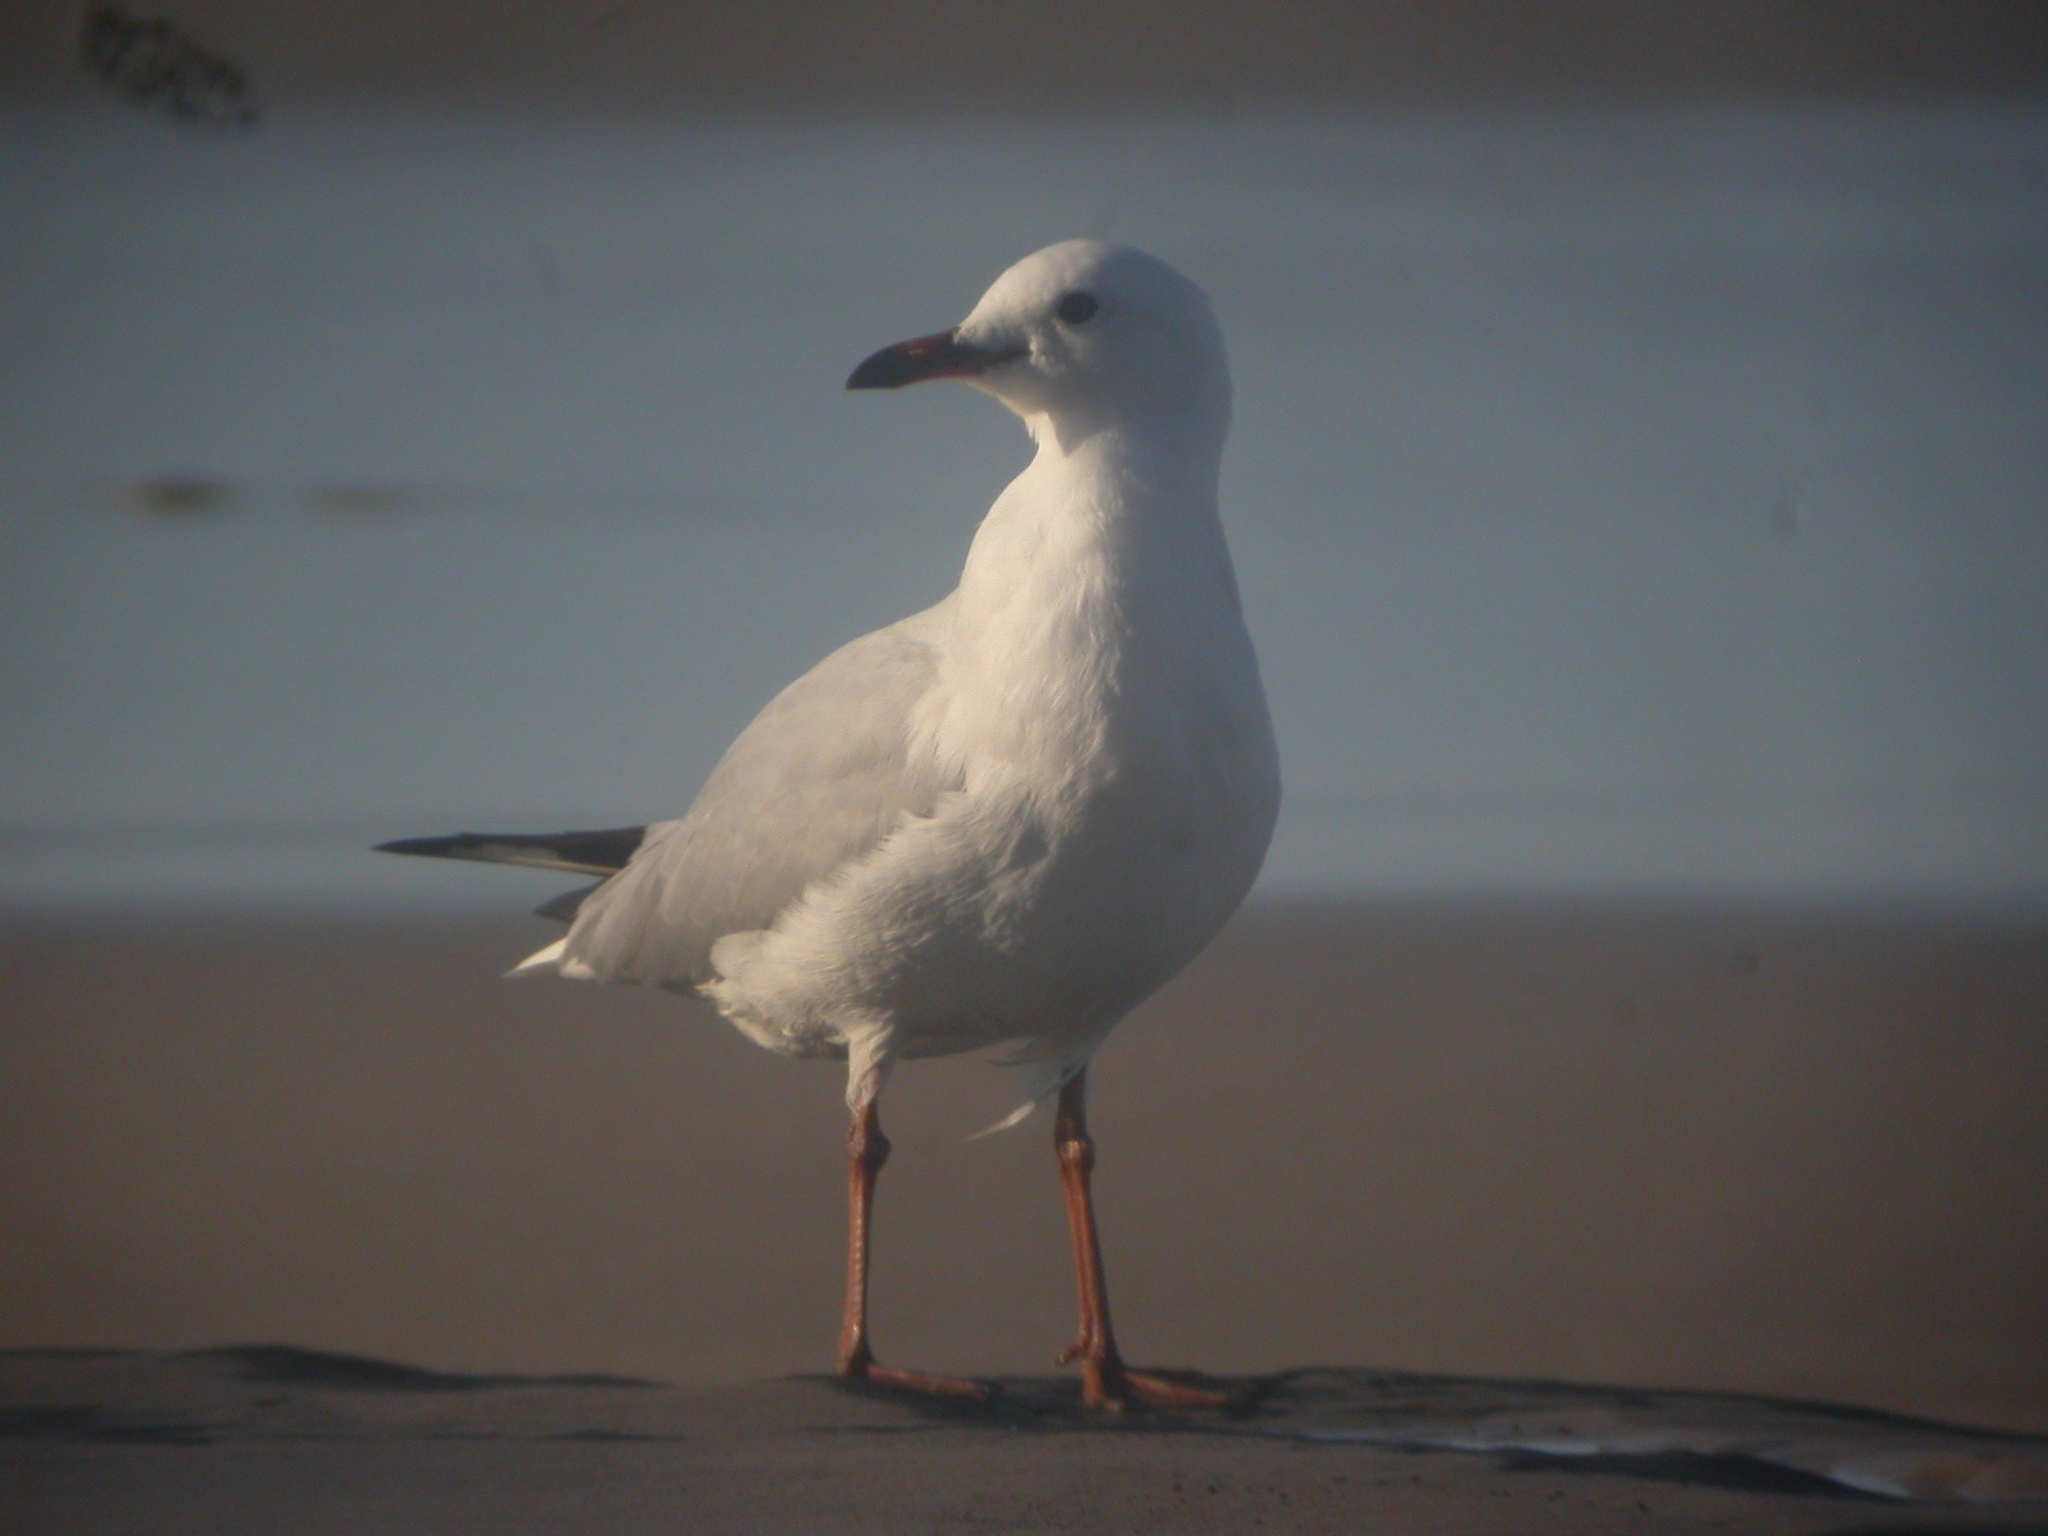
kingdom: Animalia
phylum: Chordata
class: Aves
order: Charadriiformes
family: Laridae
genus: Chroicocephalus
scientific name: Chroicocephalus novaehollandiae
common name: Silver gull
